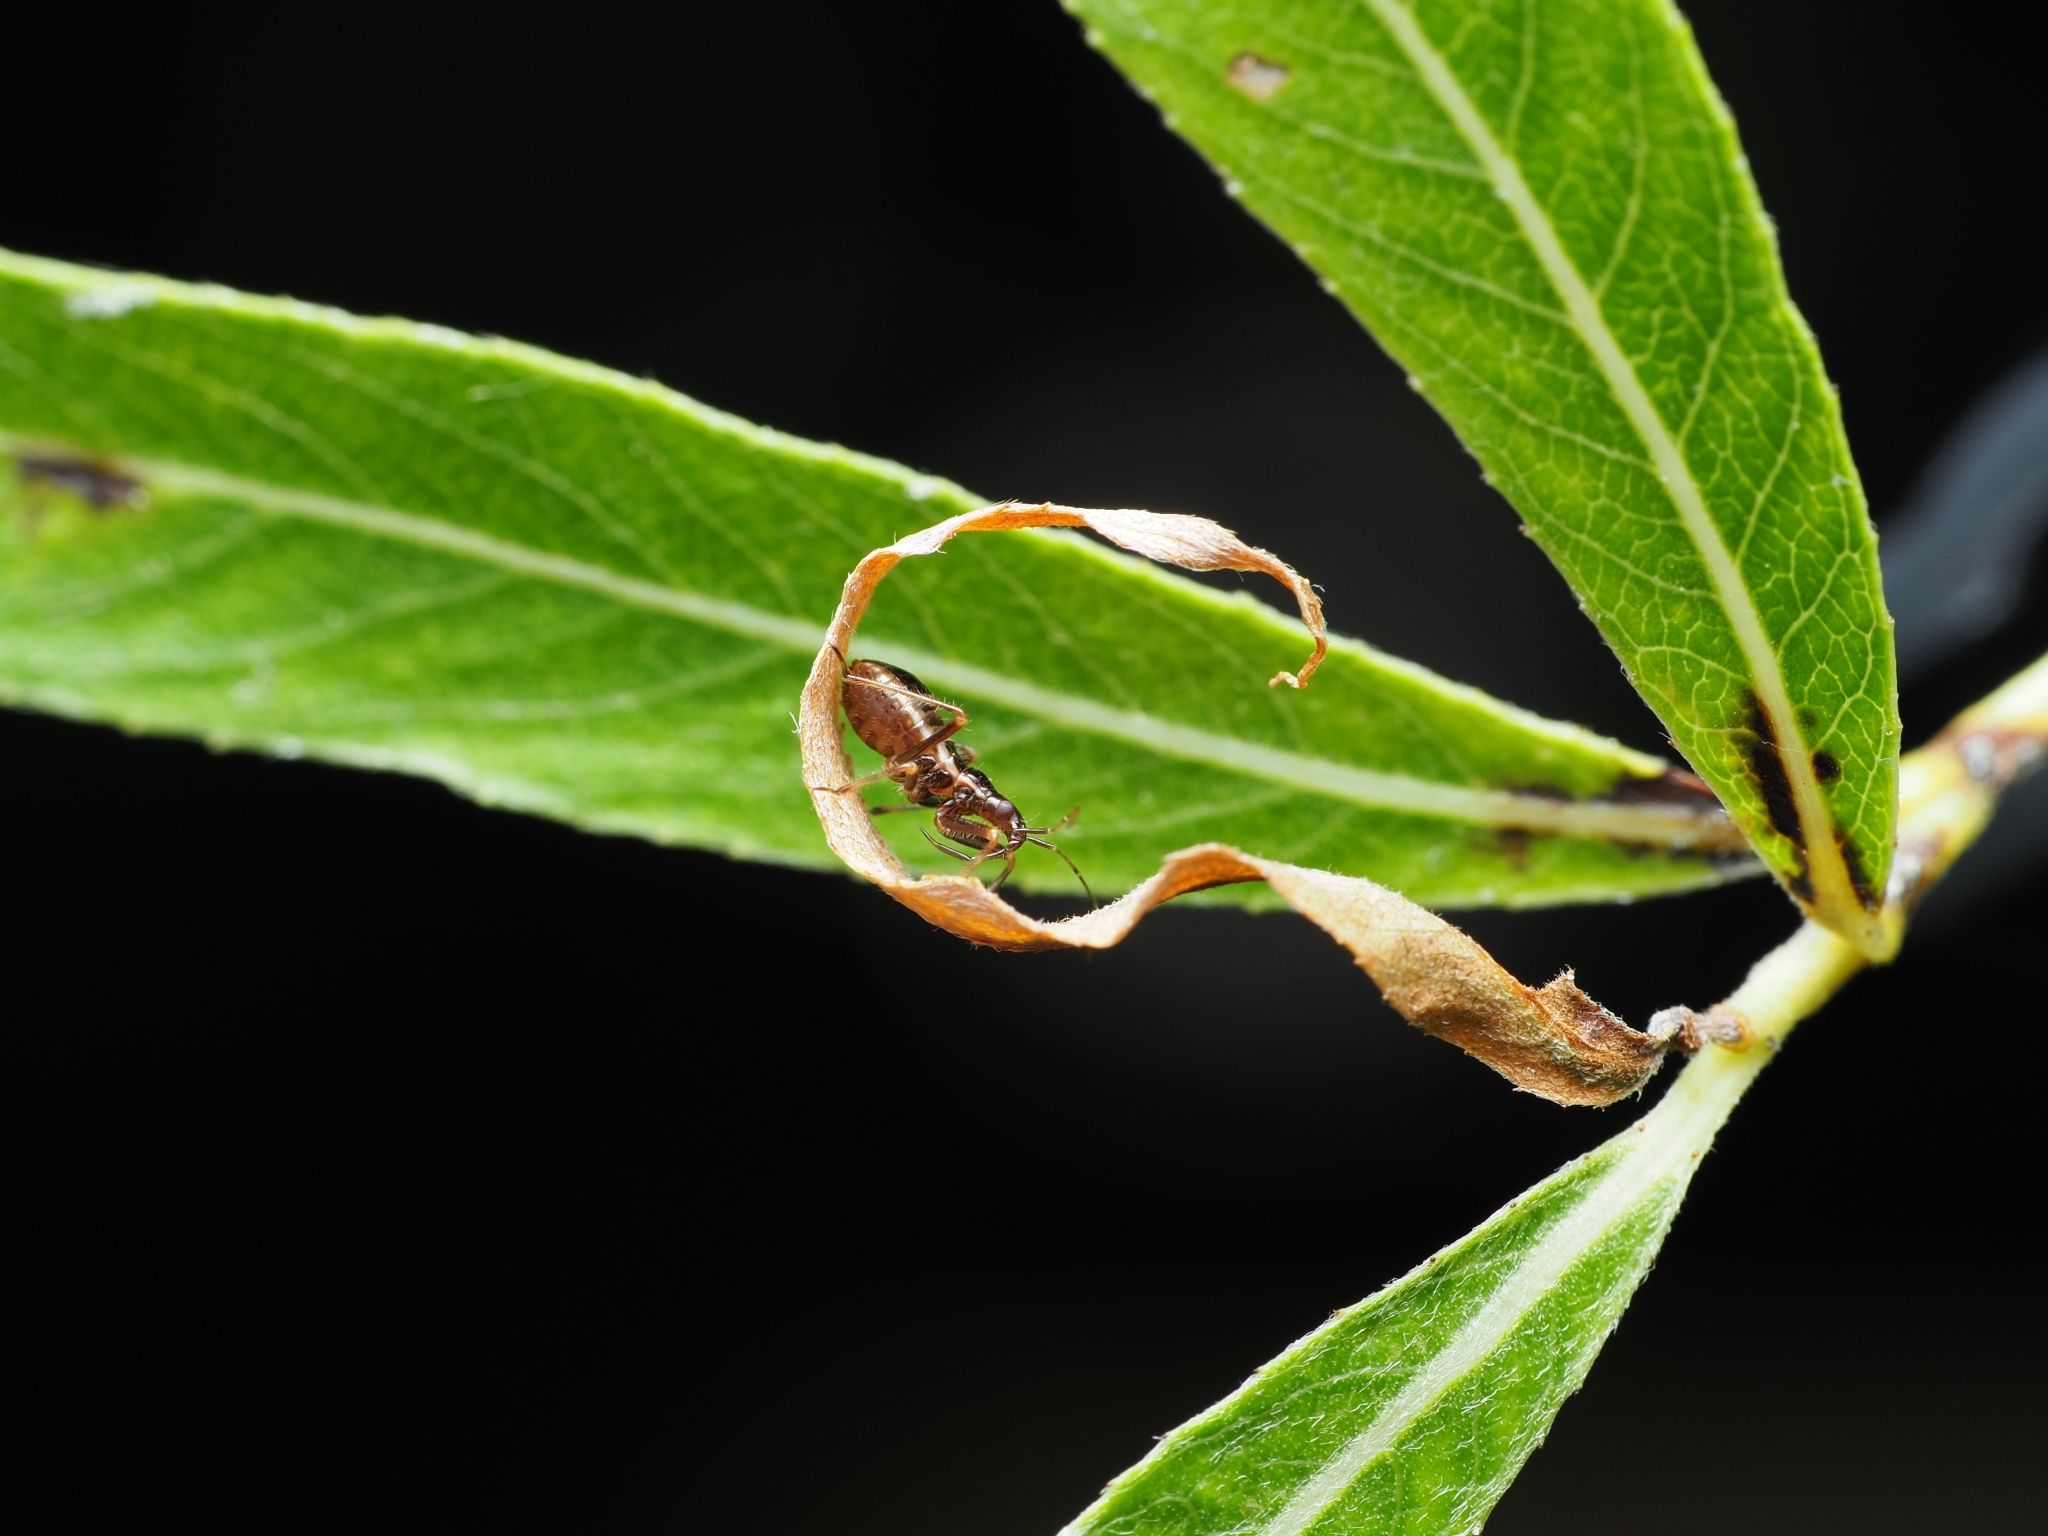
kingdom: Animalia
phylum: Arthropoda
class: Insecta
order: Hemiptera
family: Nabidae
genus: Himacerus
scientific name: Himacerus apterus
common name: Tree damsel bug
